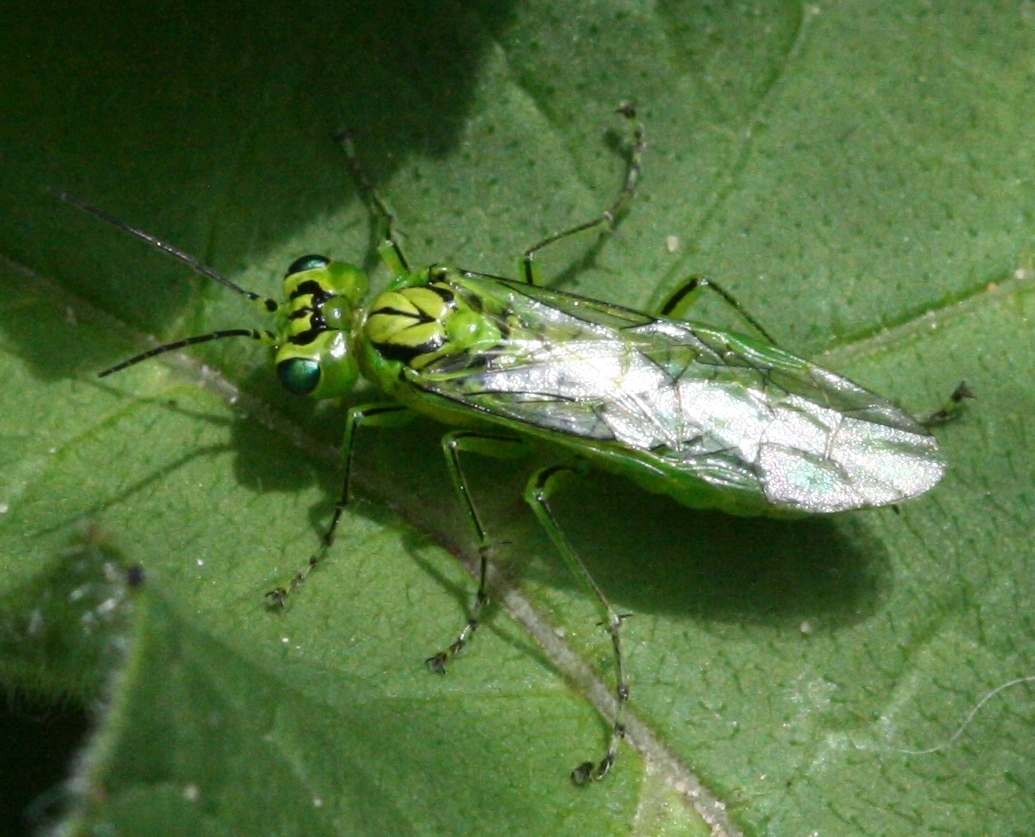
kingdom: Animalia
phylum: Arthropoda
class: Insecta
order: Hymenoptera
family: Tenthredinidae
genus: Rhogogaster
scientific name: Rhogogaster punctulata
